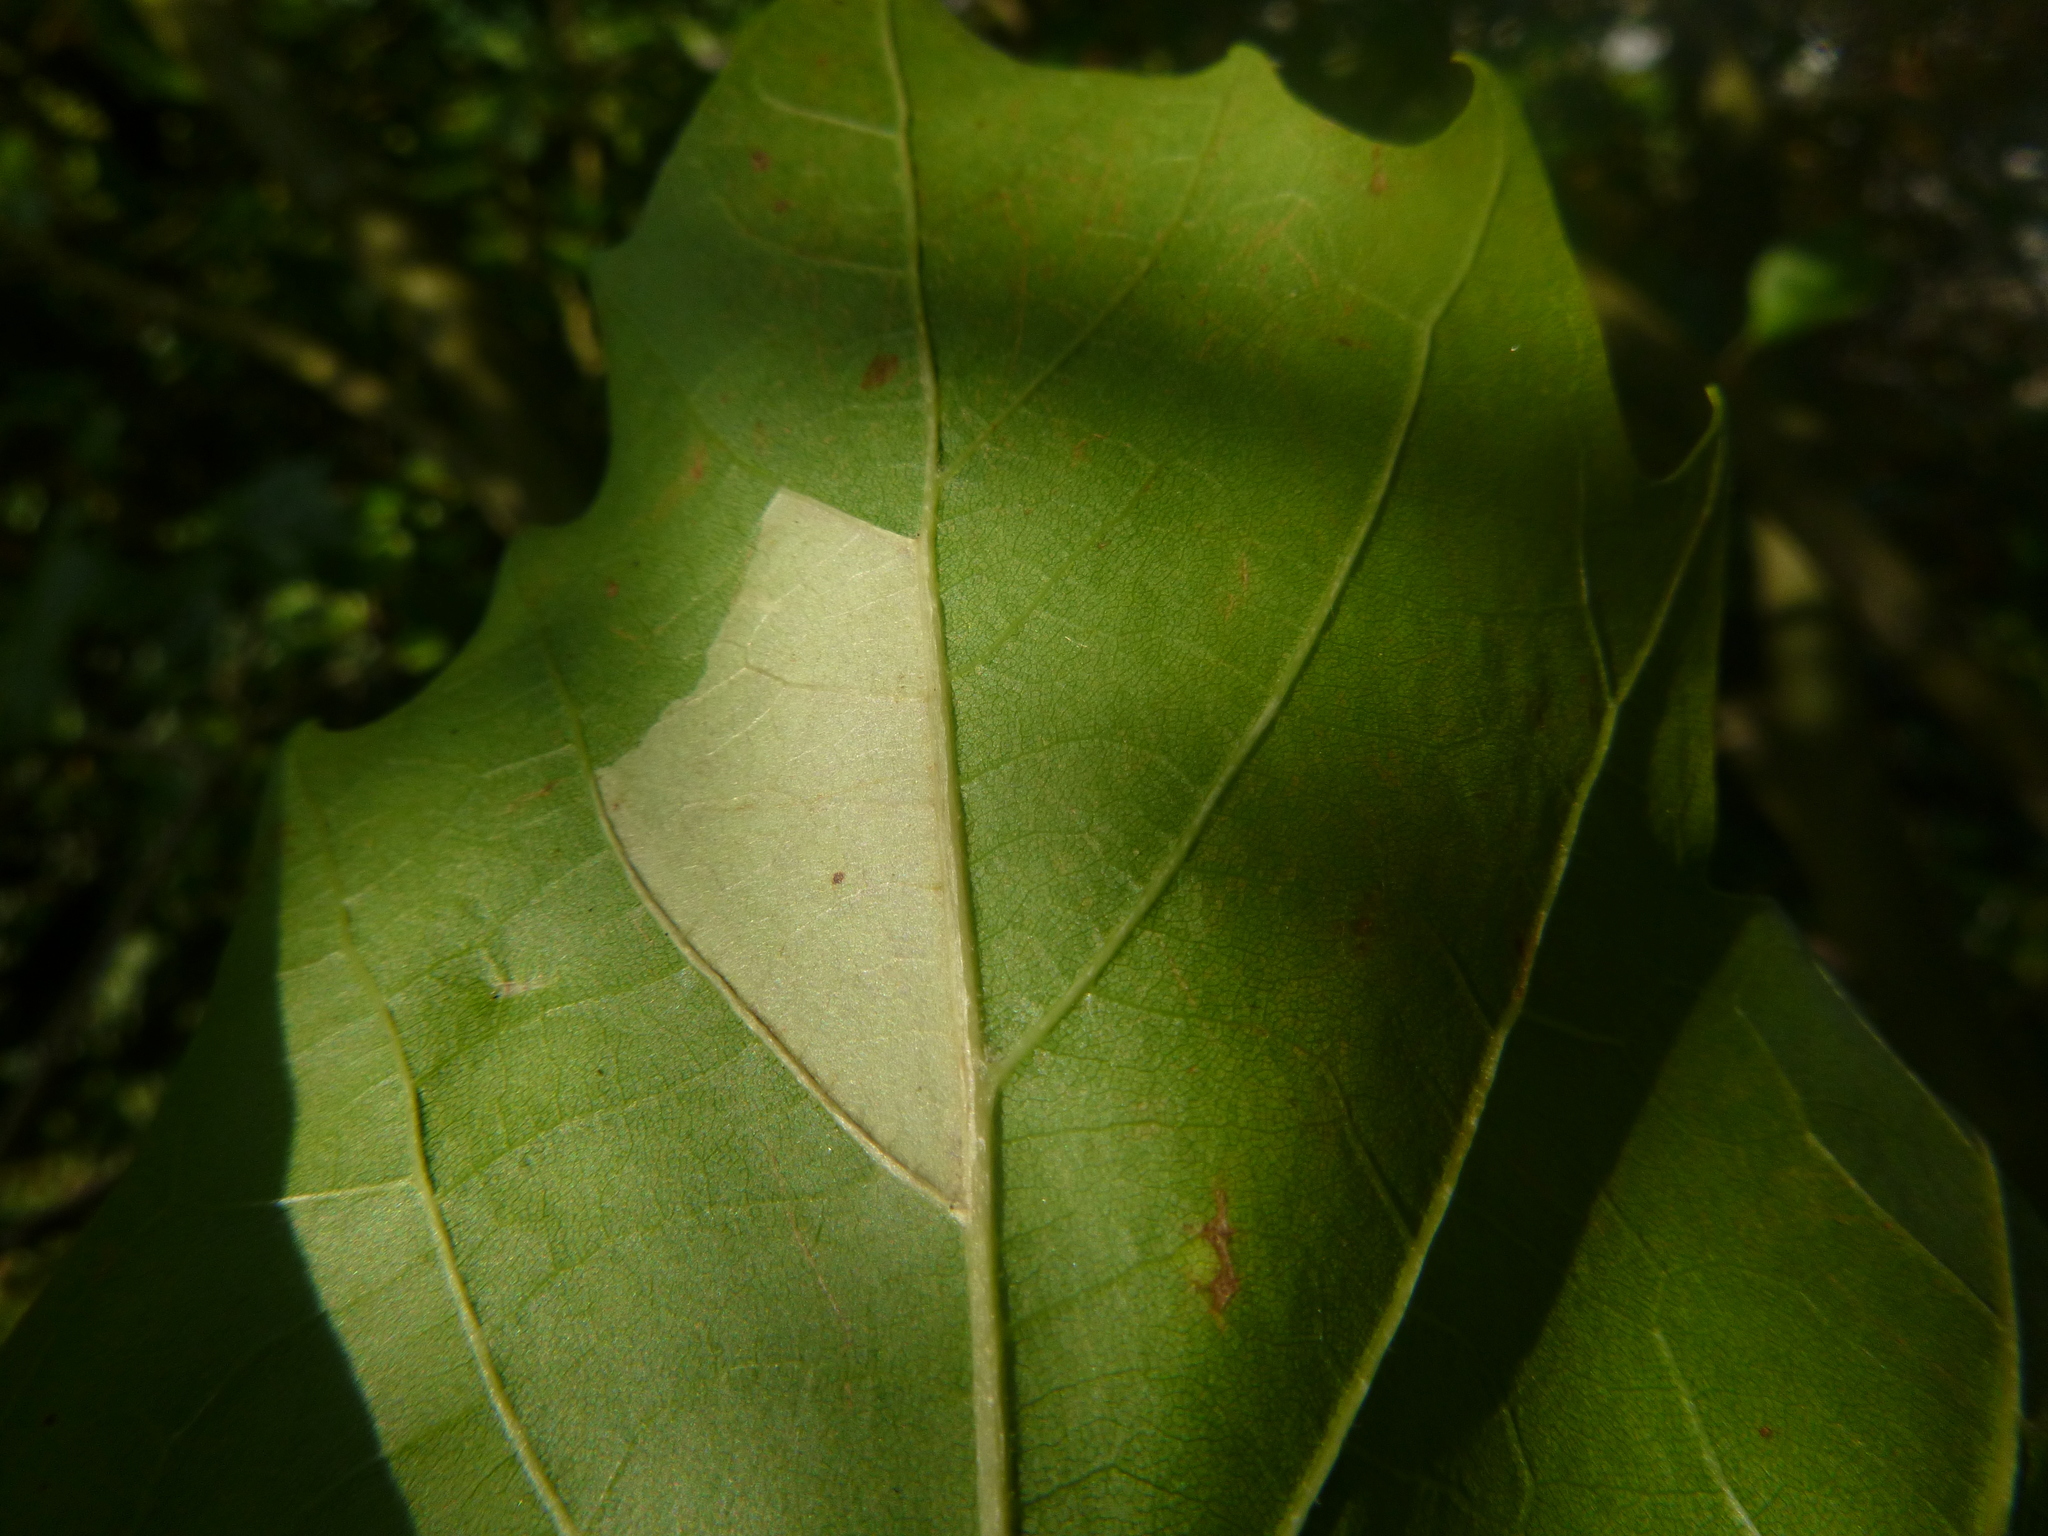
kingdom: Animalia
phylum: Arthropoda
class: Insecta
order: Lepidoptera
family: Gracillariidae
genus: Phyllonorycter
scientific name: Phyllonorycter platani
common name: London midget
